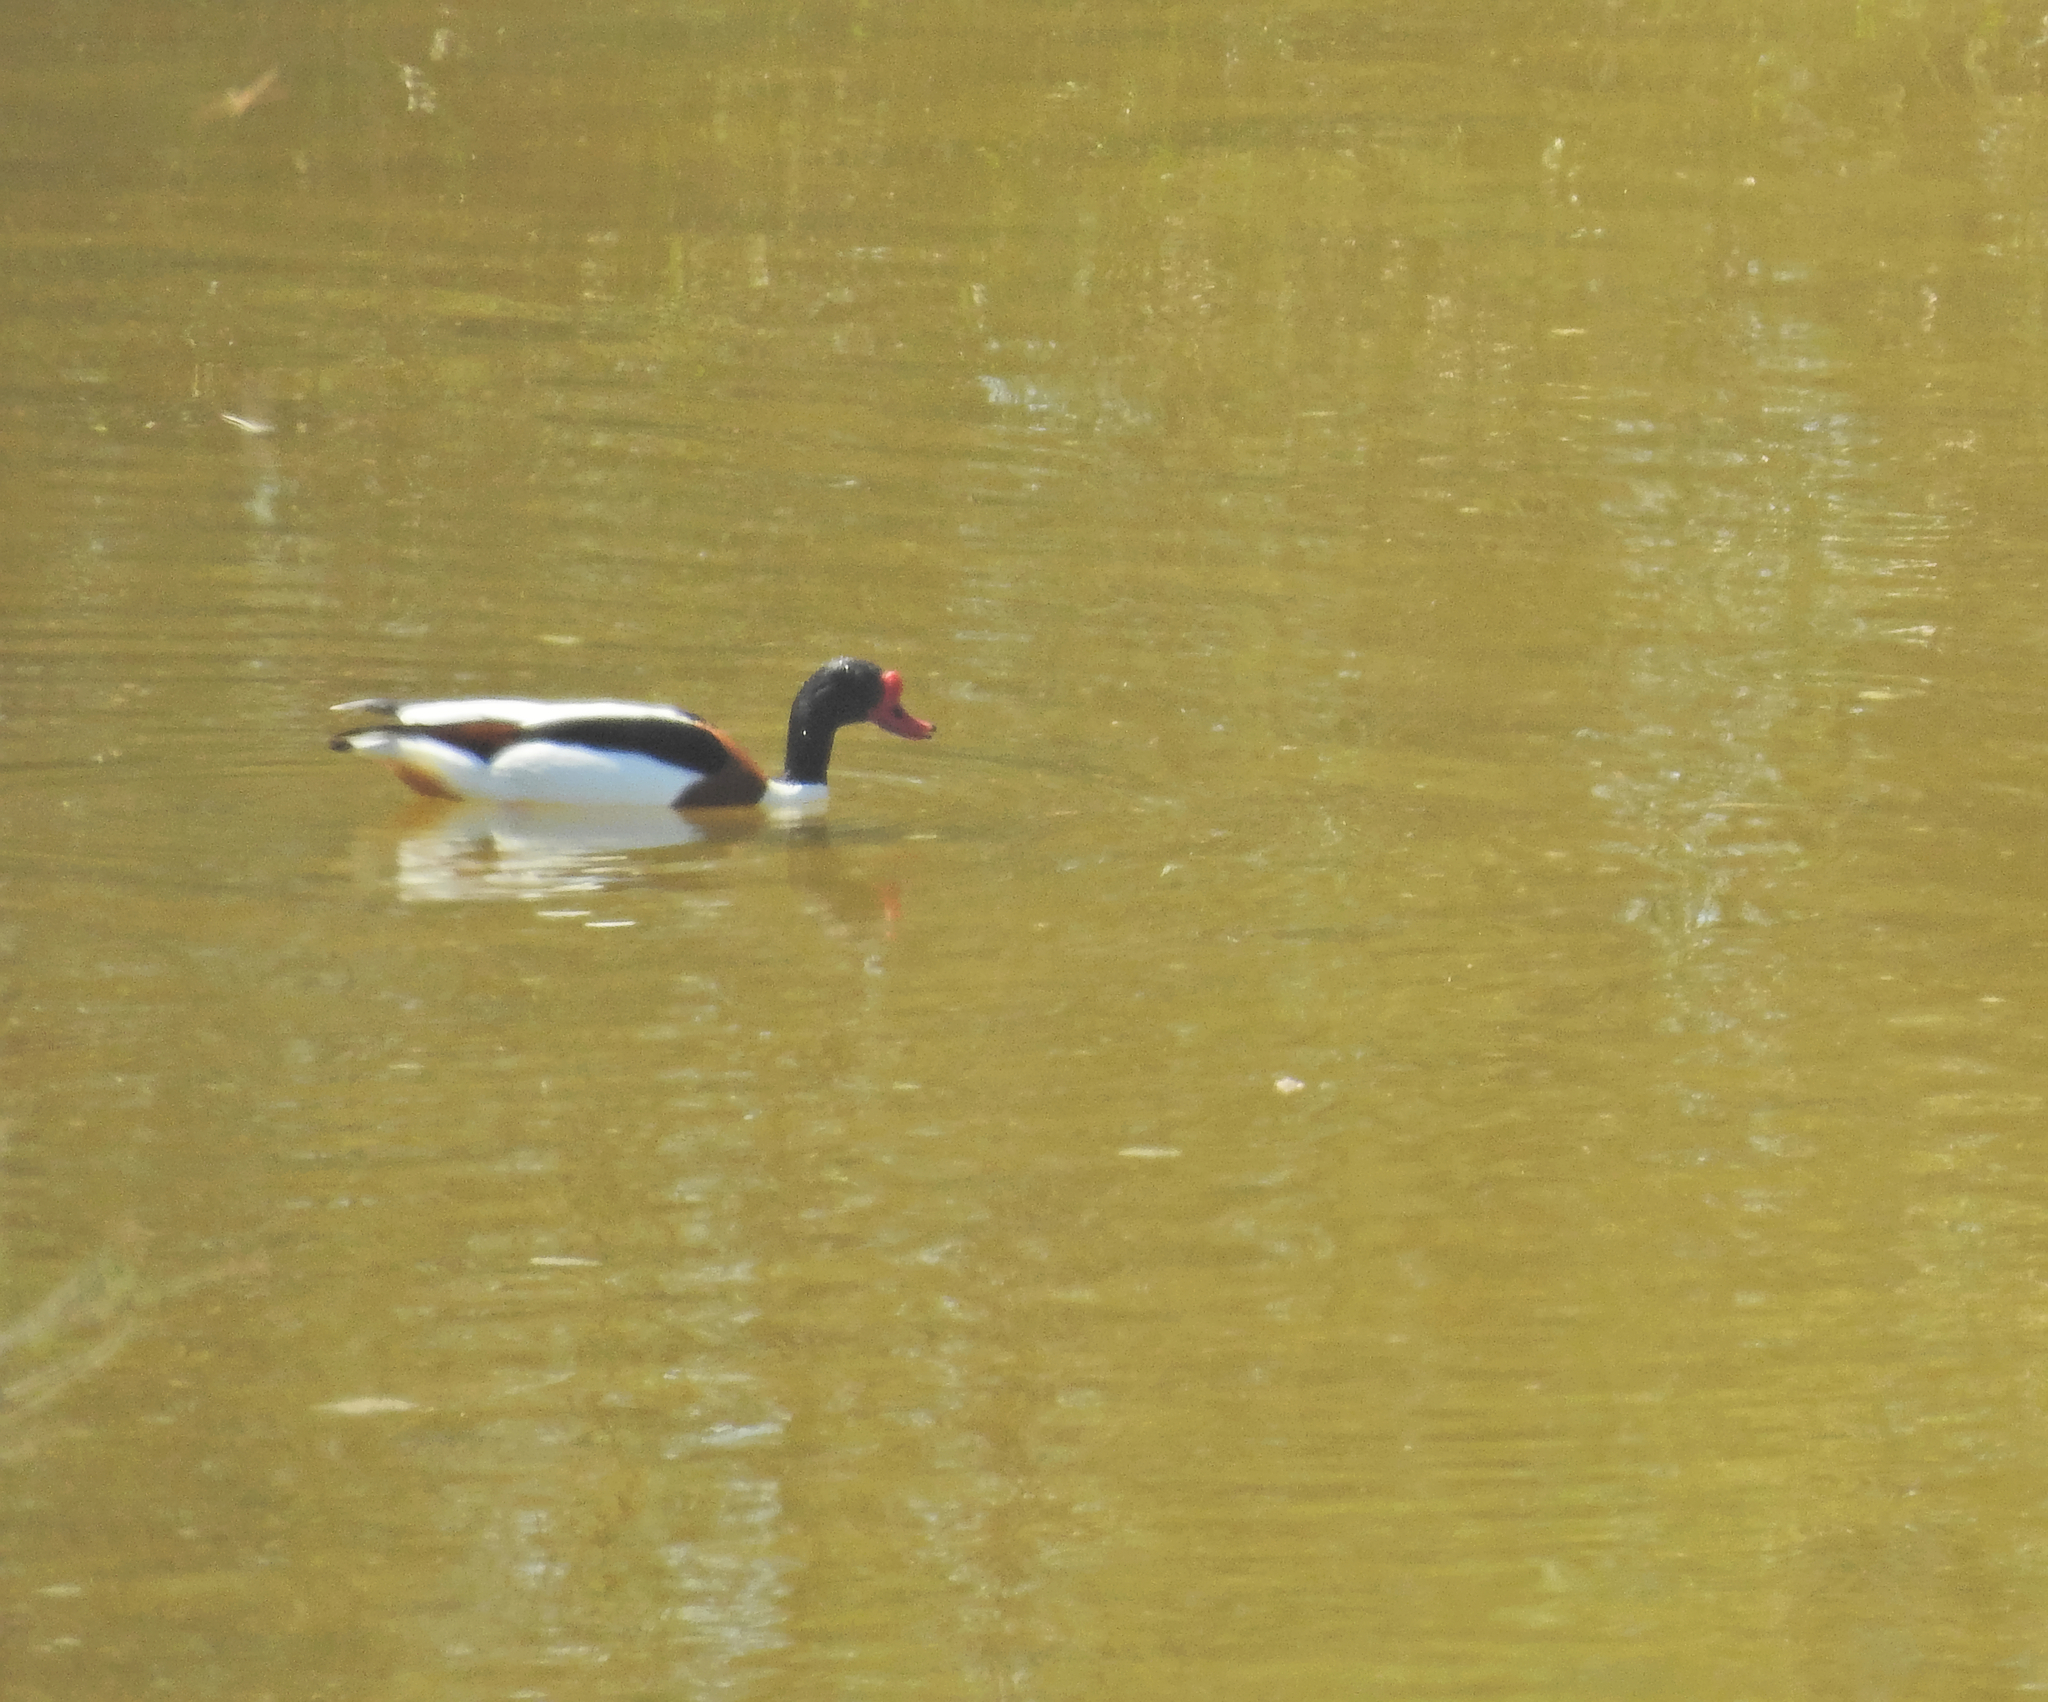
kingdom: Animalia
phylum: Chordata
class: Aves
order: Anseriformes
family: Anatidae
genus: Tadorna
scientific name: Tadorna tadorna
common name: Common shelduck
